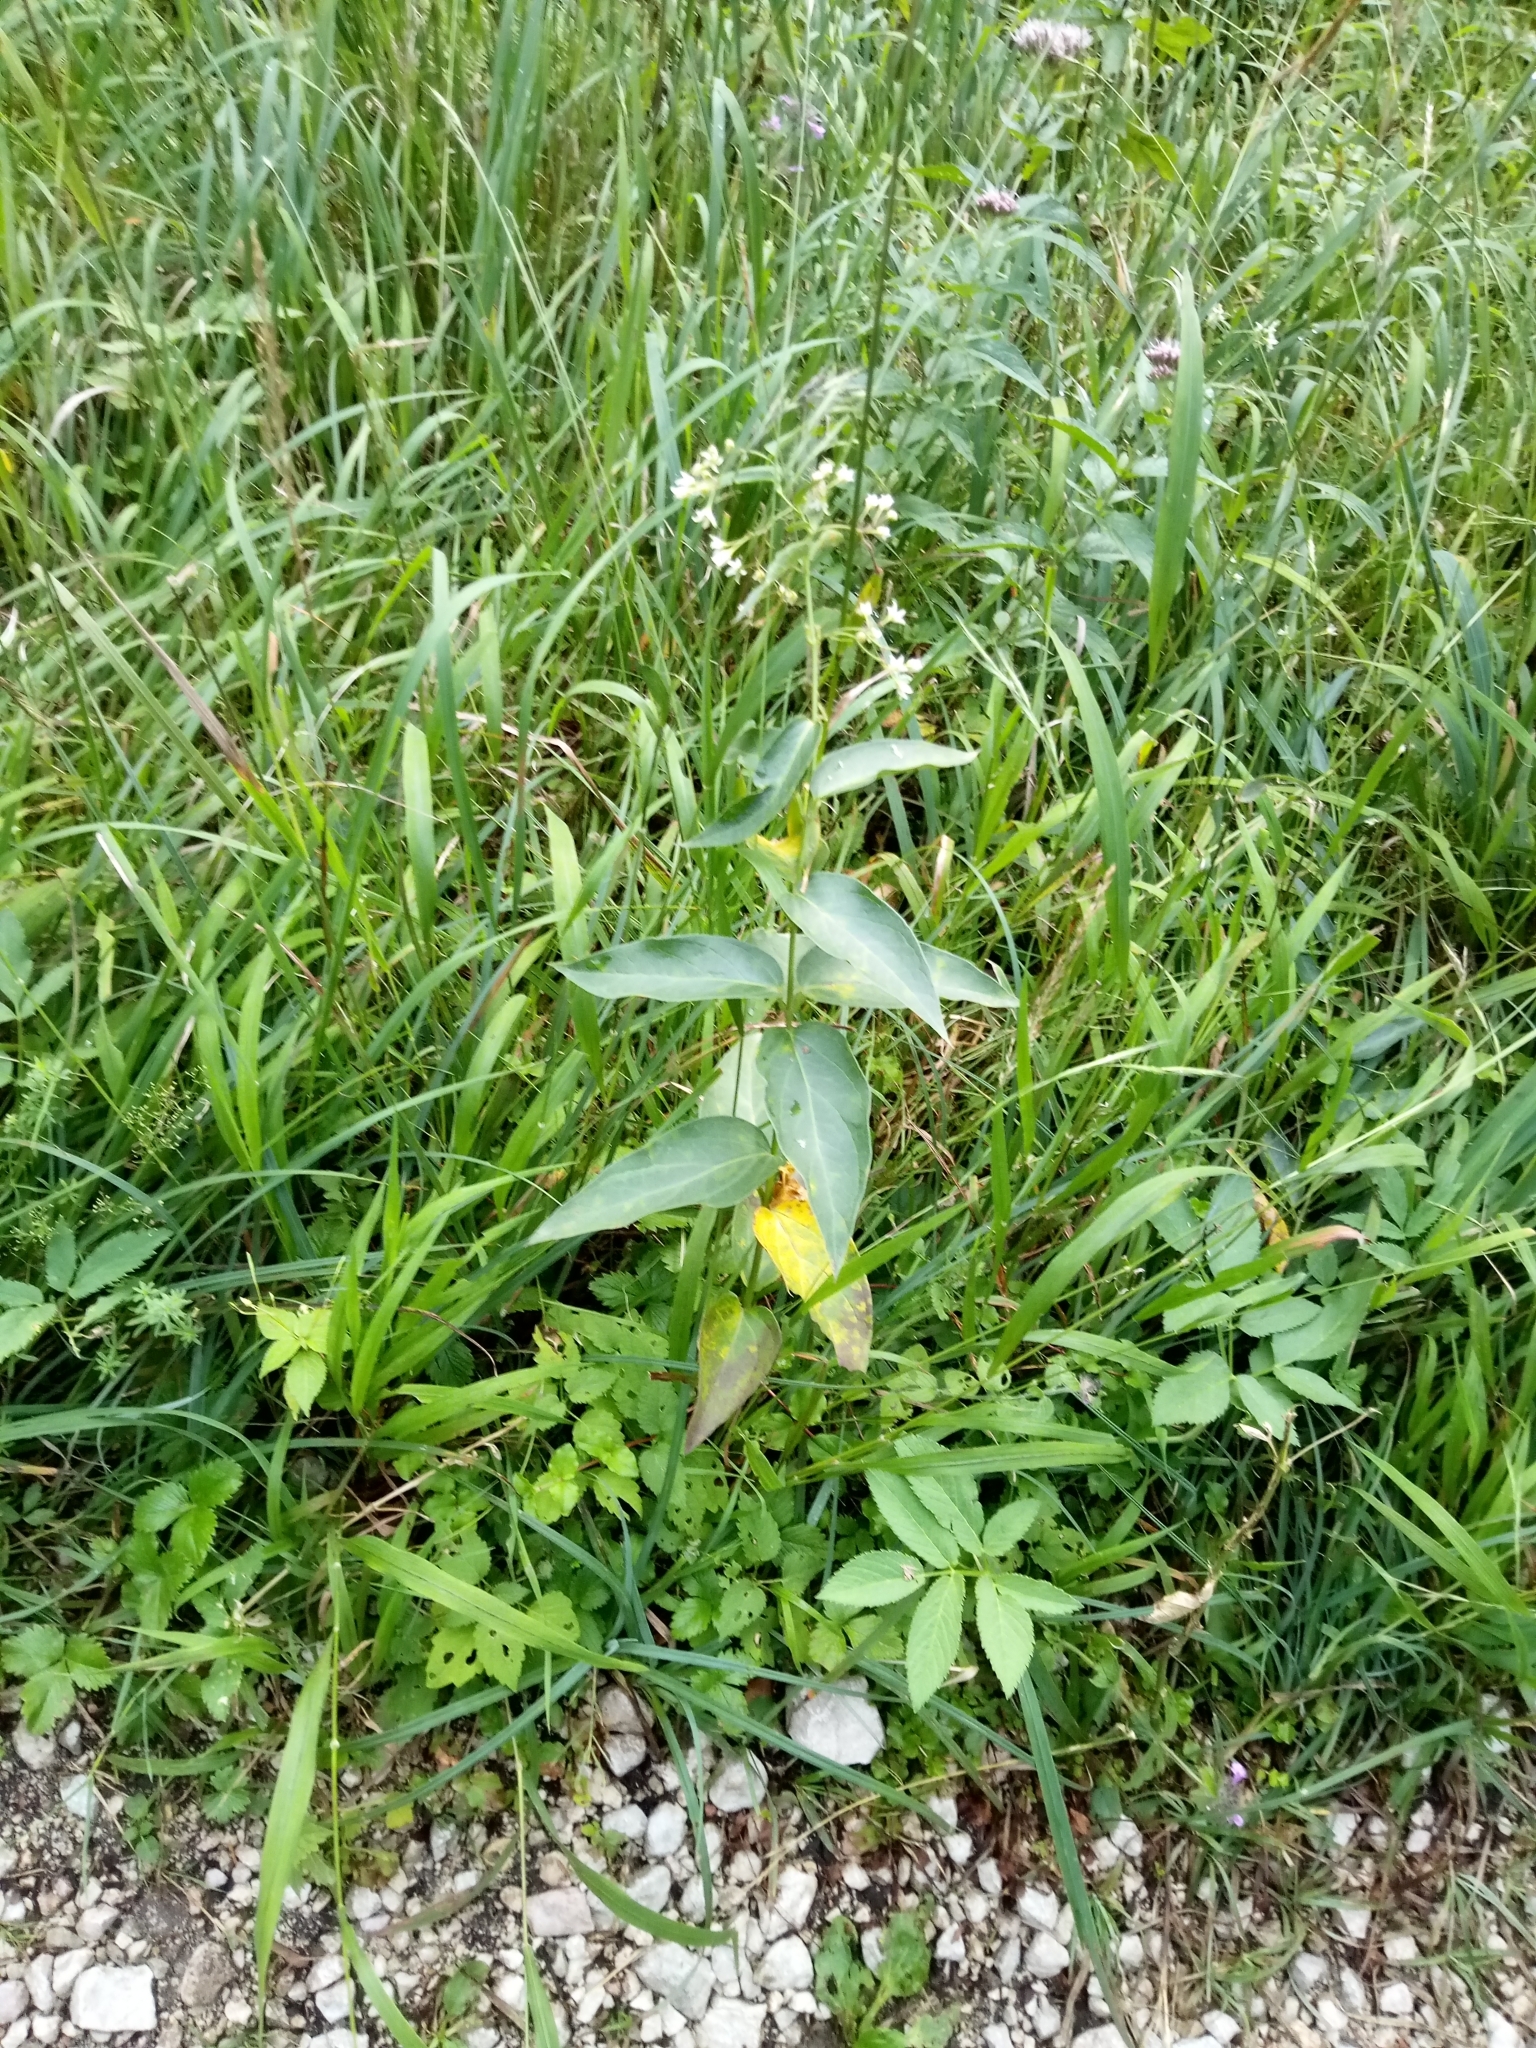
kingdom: Plantae
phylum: Tracheophyta
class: Magnoliopsida
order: Gentianales
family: Apocynaceae
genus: Vincetoxicum
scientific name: Vincetoxicum hirundinaria
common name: White swallowwort
